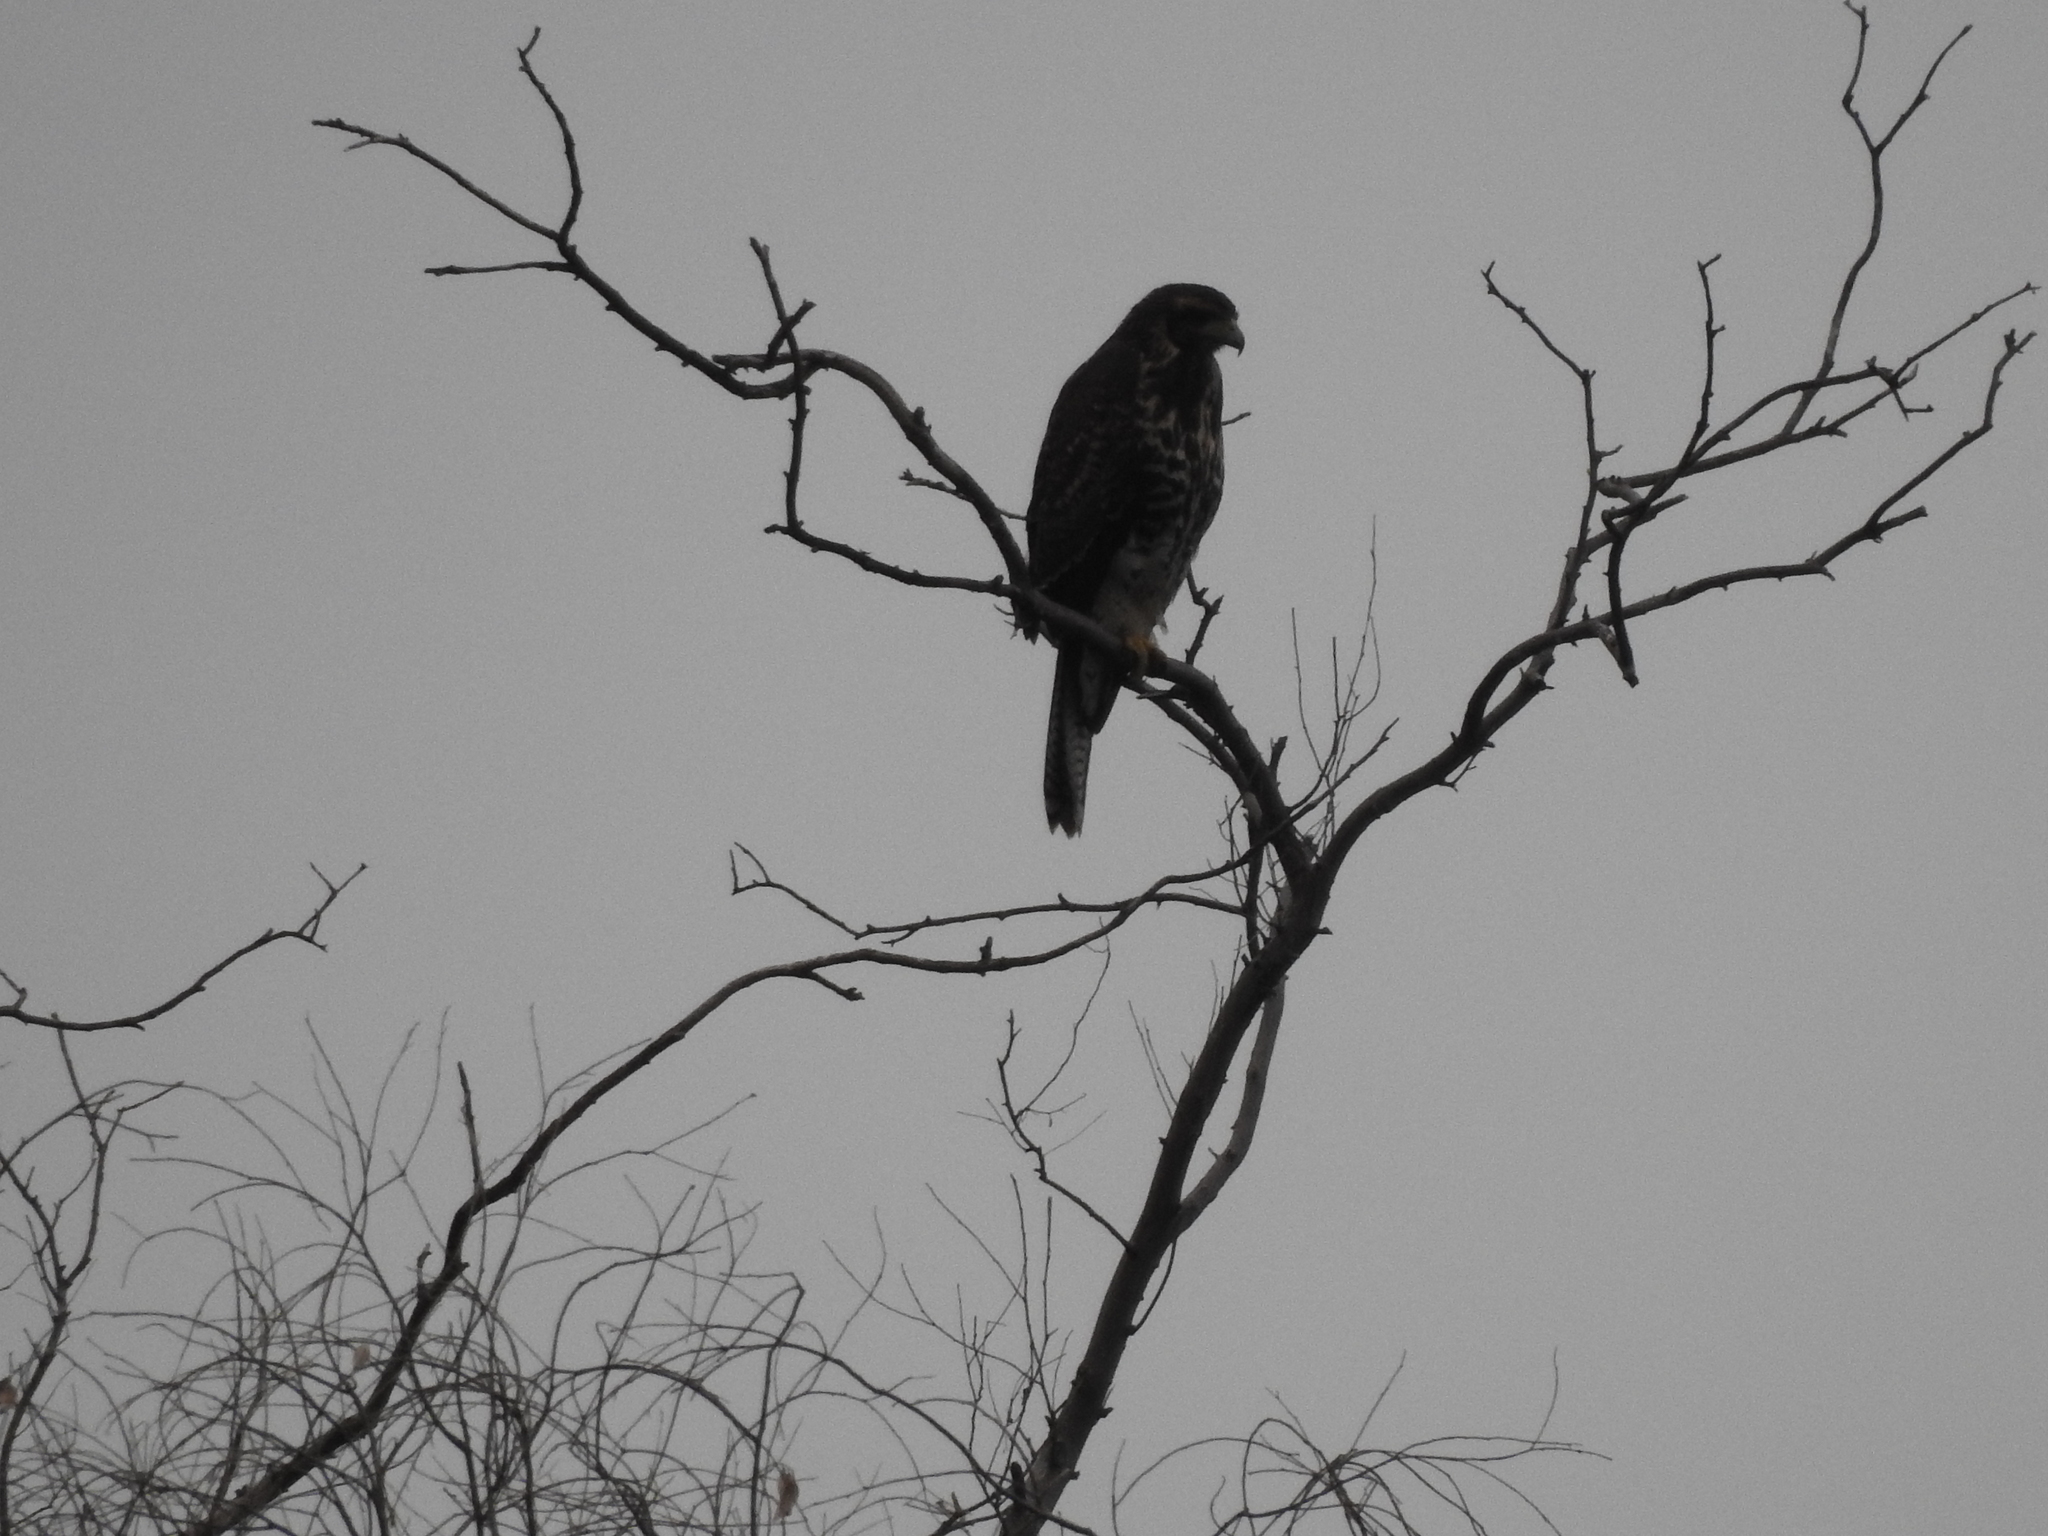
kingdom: Animalia
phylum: Chordata
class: Aves
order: Accipitriformes
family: Accipitridae
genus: Parabuteo
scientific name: Parabuteo unicinctus
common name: Harris's hawk
